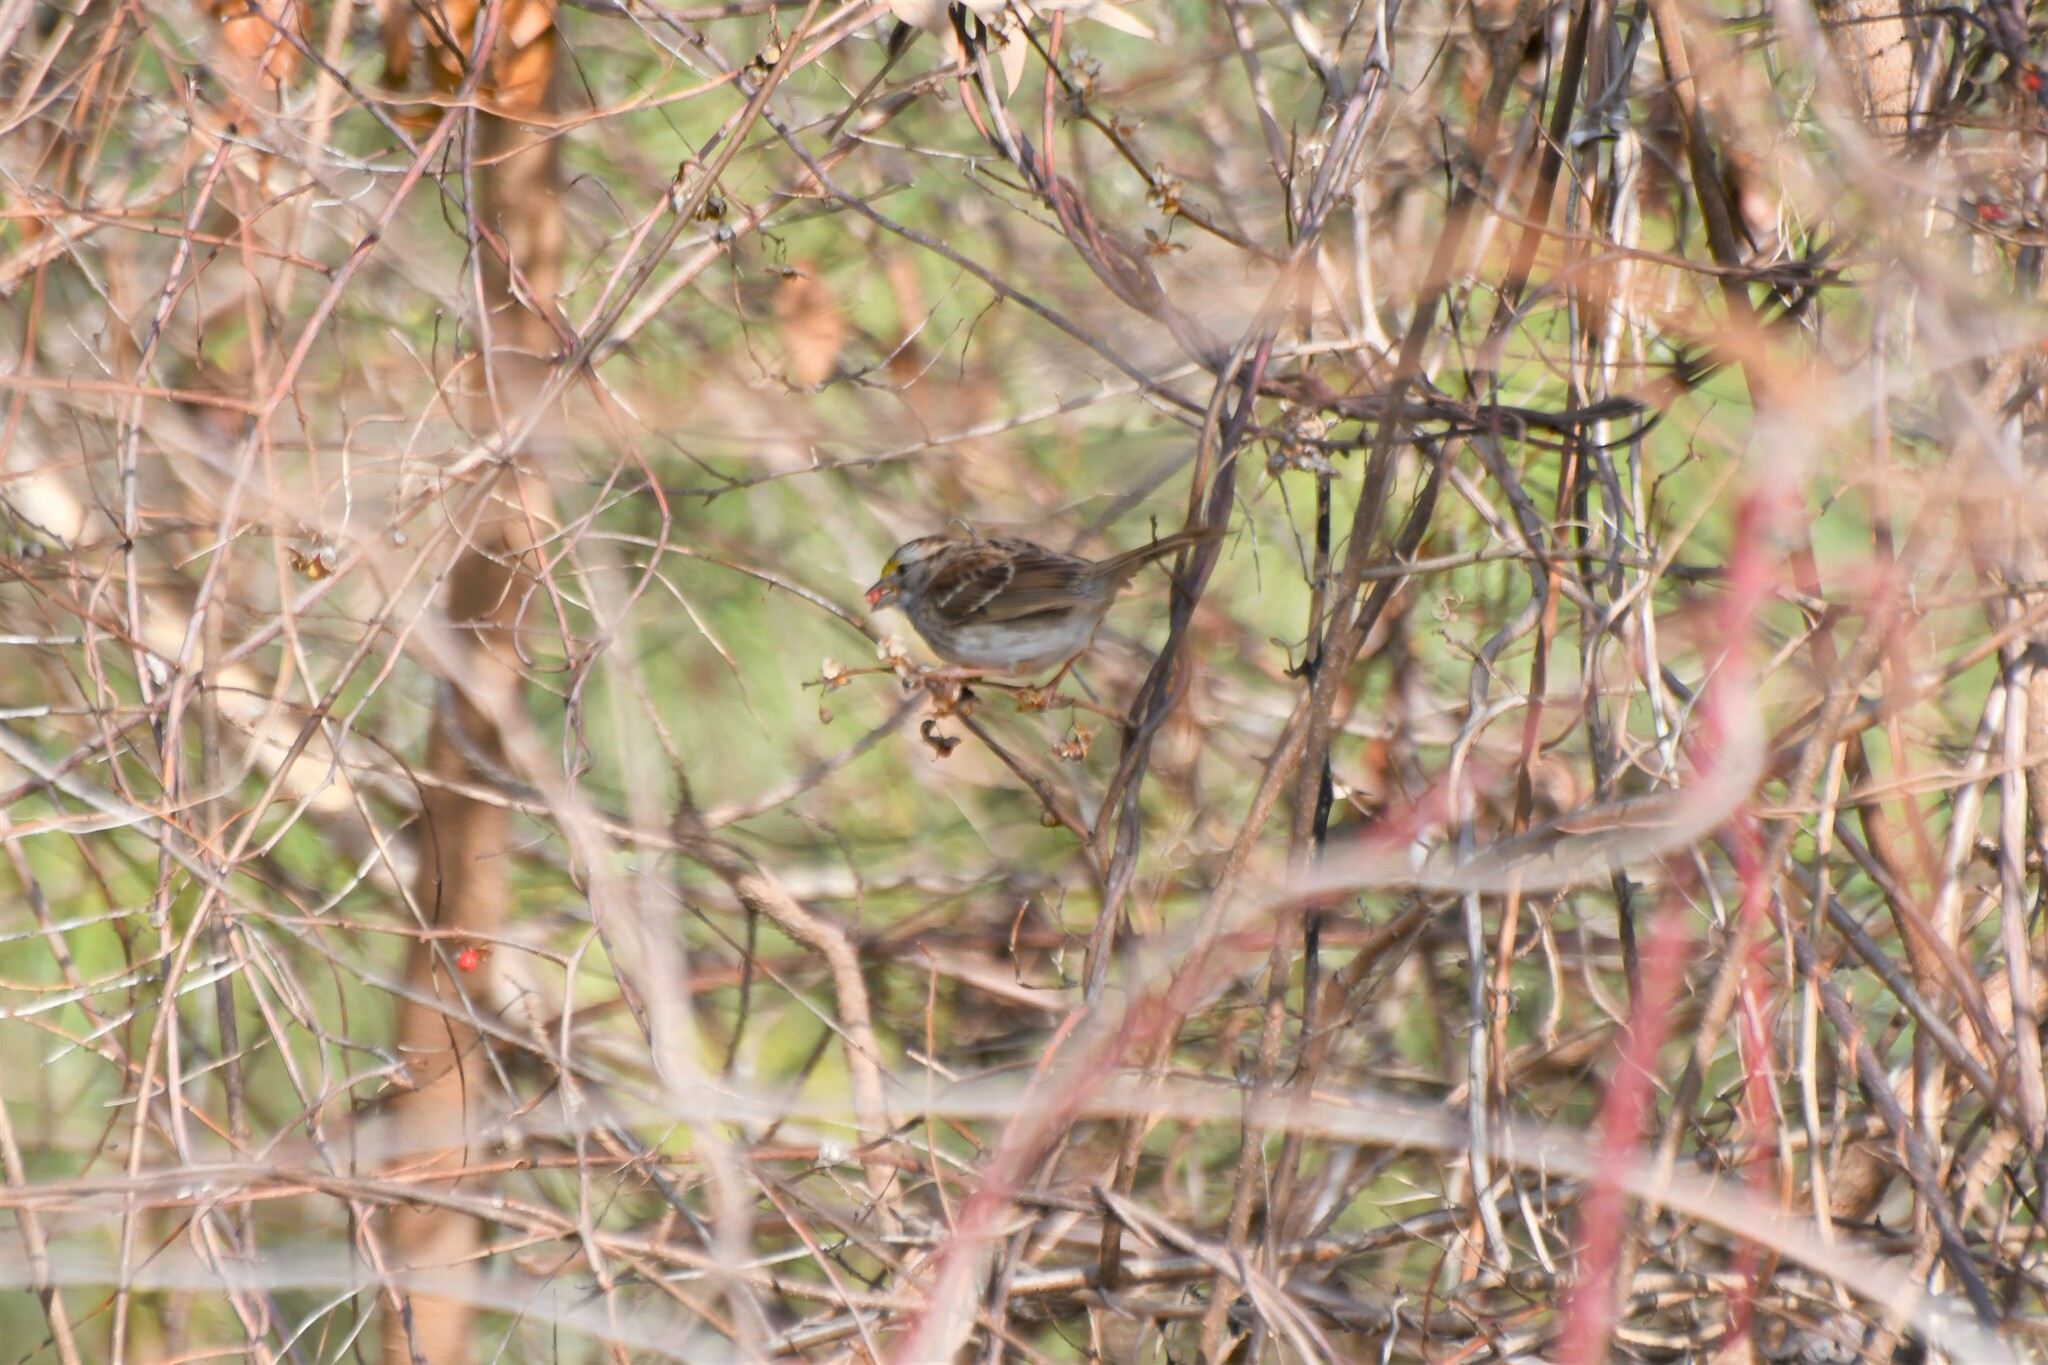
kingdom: Animalia
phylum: Chordata
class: Aves
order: Passeriformes
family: Passerellidae
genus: Zonotrichia
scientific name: Zonotrichia albicollis
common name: White-throated sparrow
